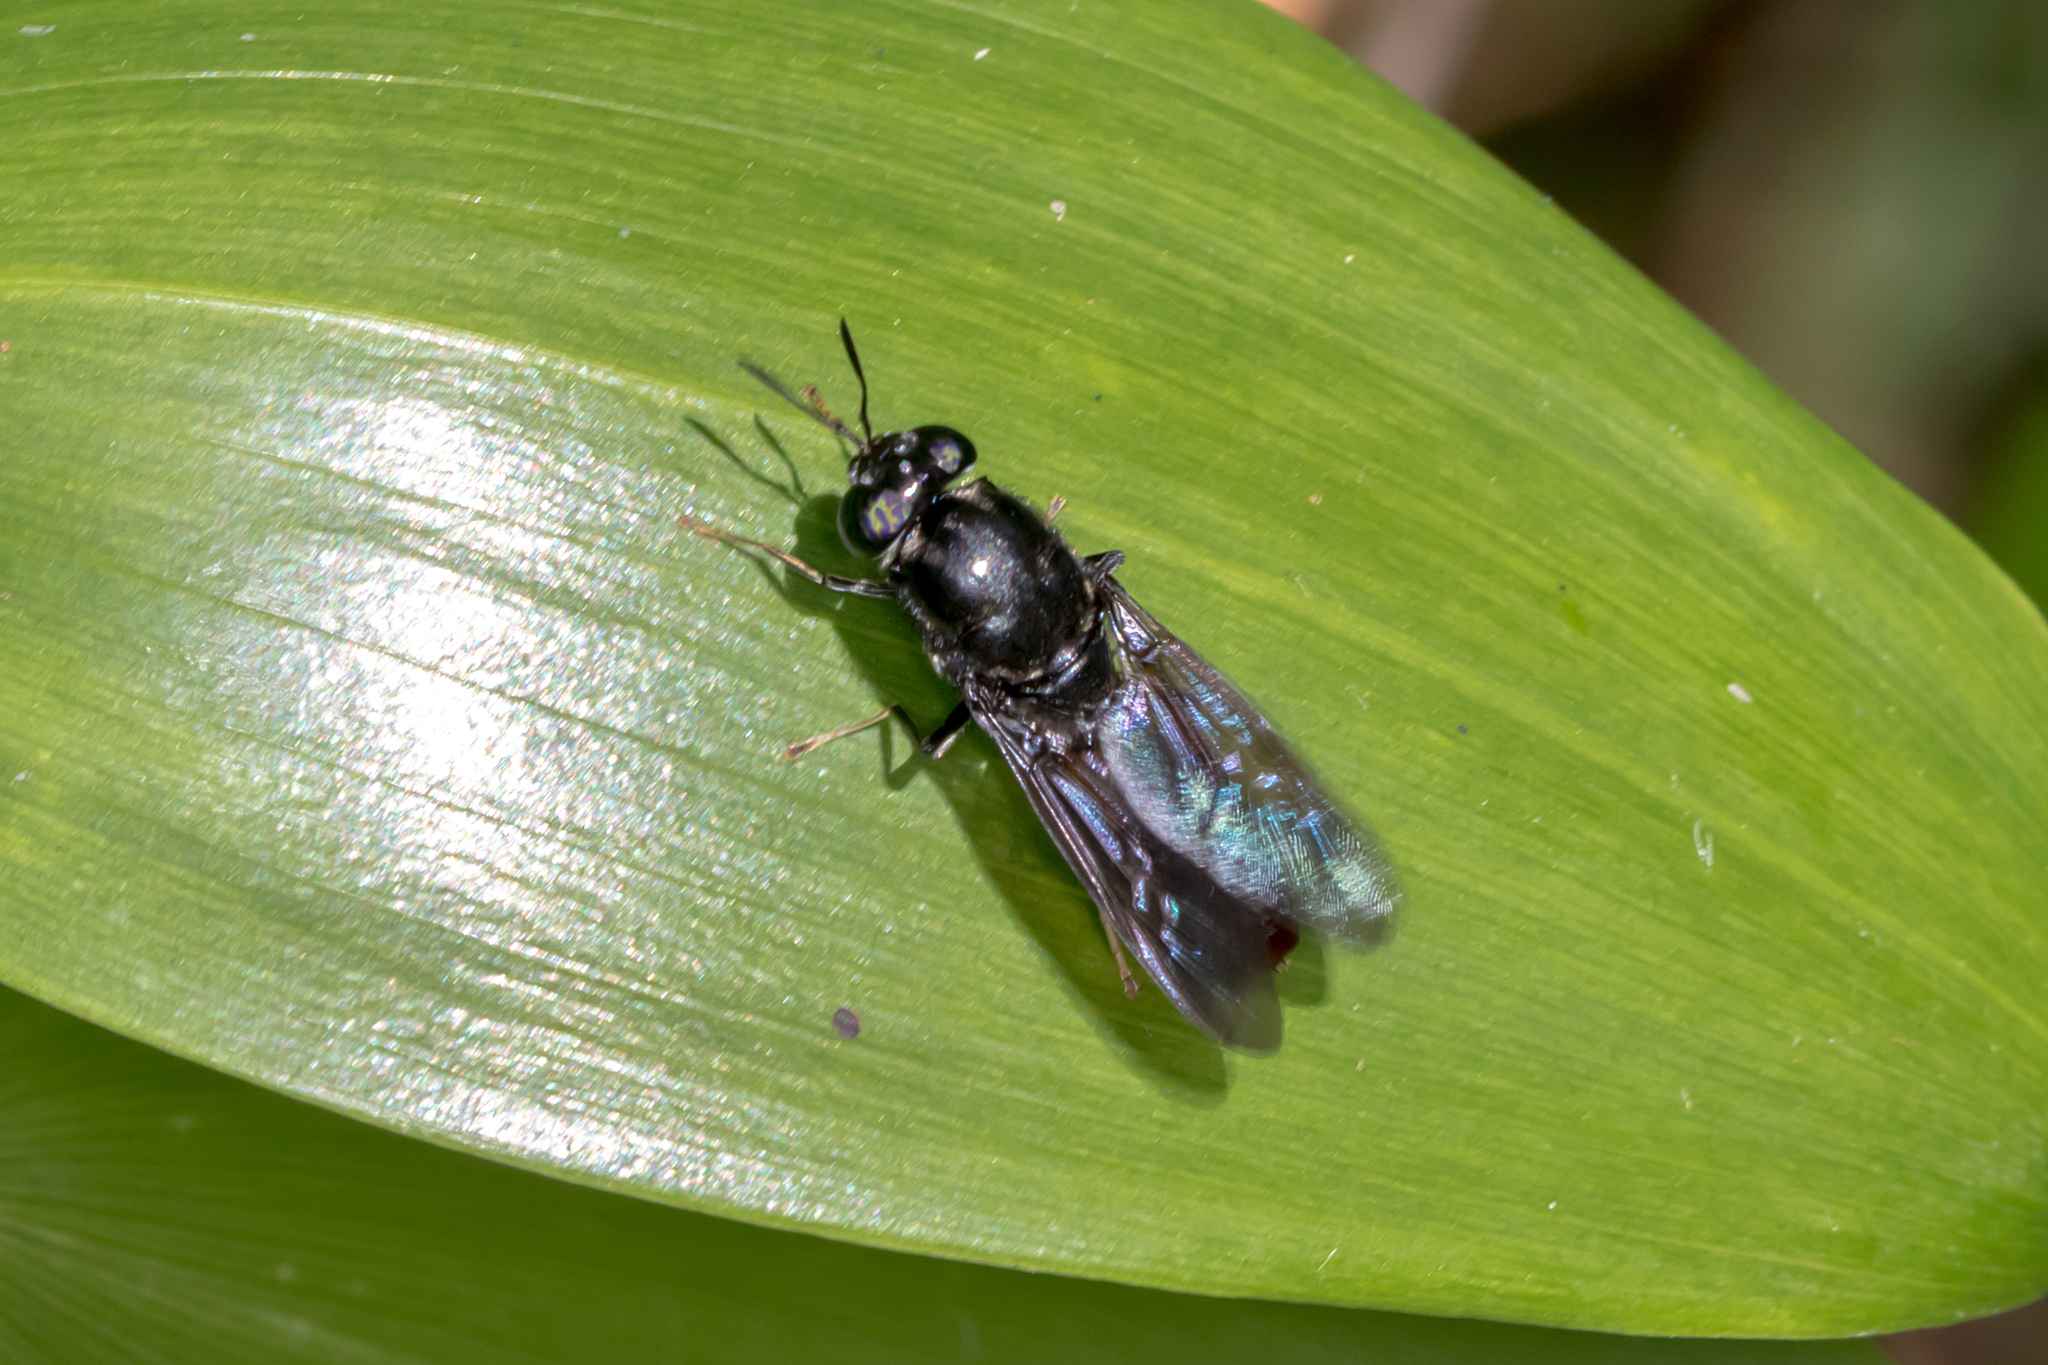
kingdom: Animalia
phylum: Arthropoda
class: Insecta
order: Diptera
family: Stratiomyidae
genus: Hermetia
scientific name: Hermetia illucens
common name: Black soldier fly
